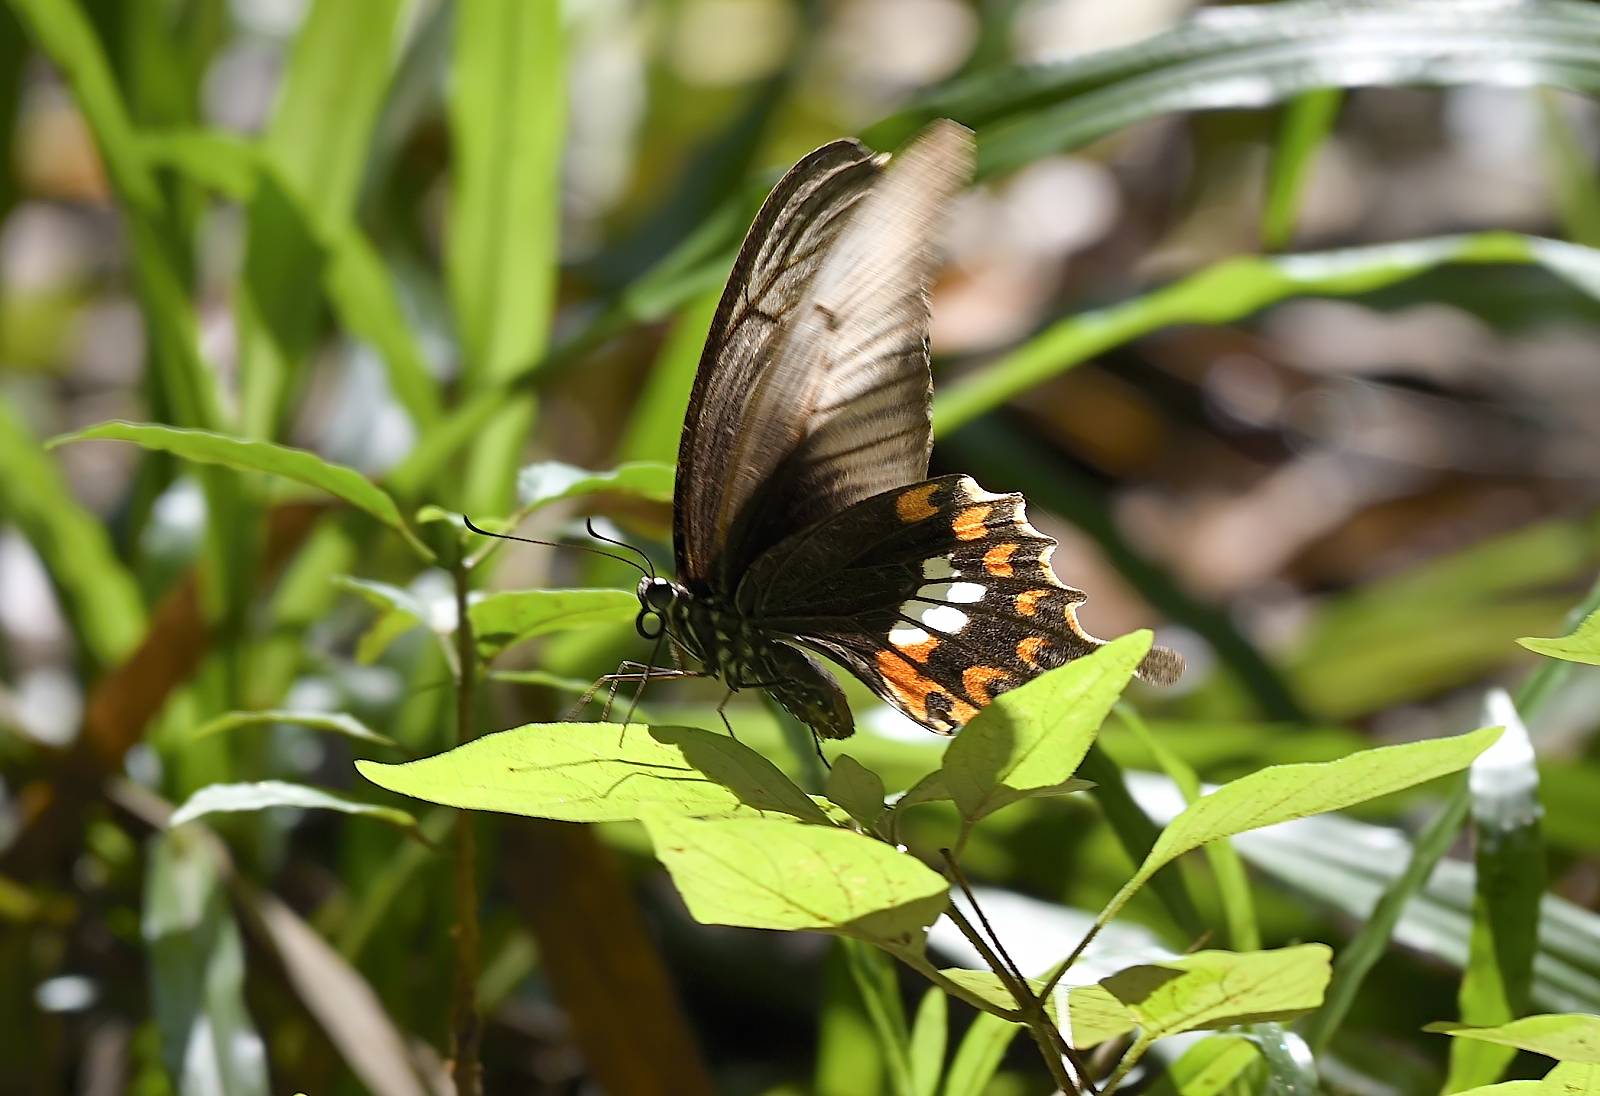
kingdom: Animalia
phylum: Arthropoda
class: Insecta
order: Lepidoptera
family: Papilionidae
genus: Papilio
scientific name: Papilio polytes
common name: Common mormon
